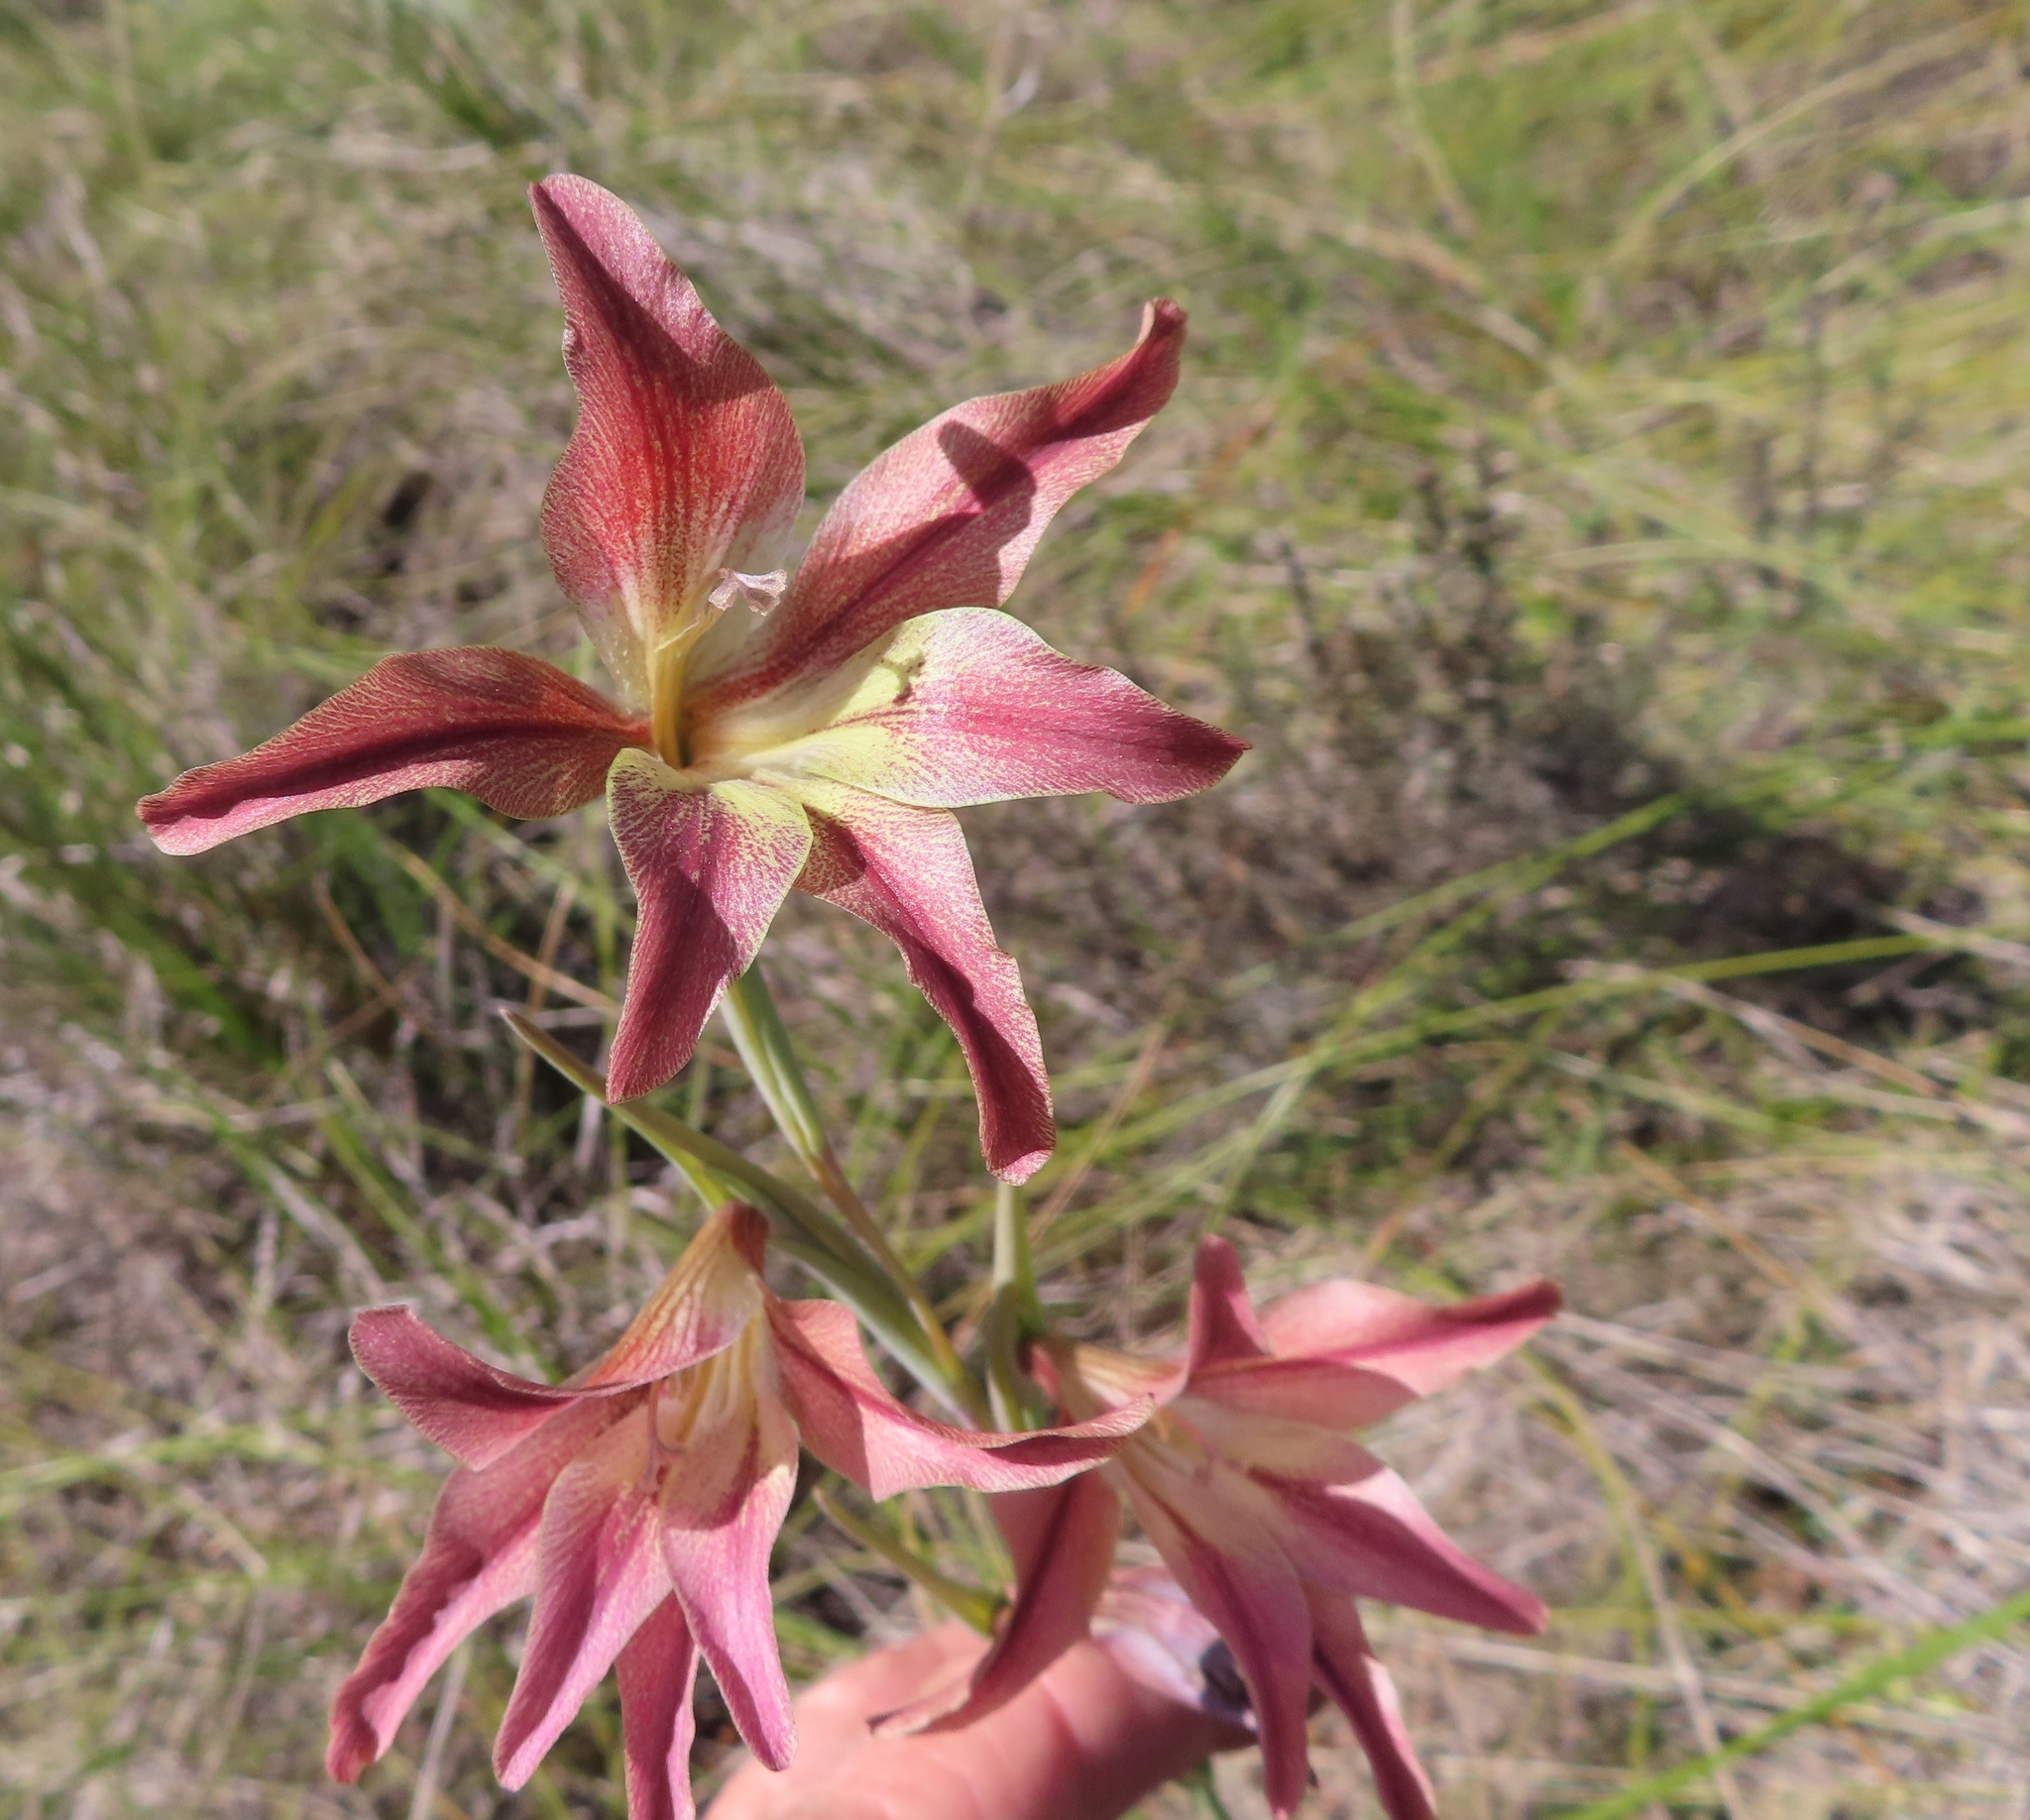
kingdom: Plantae
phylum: Tracheophyta
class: Liliopsida
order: Asparagales
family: Iridaceae
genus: Gladiolus
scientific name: Gladiolus liliaceus
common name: Large brown afrikaner
